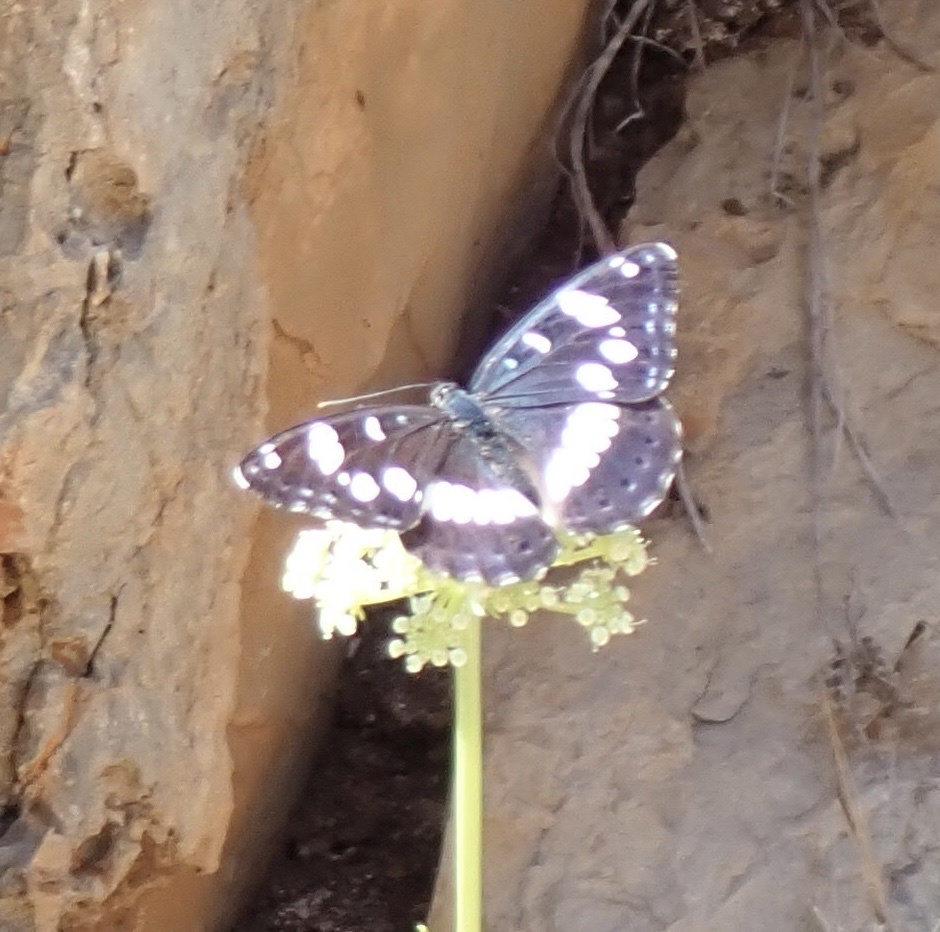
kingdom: Animalia
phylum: Arthropoda
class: Insecta
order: Lepidoptera
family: Nymphalidae
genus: Limenitis
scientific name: Limenitis reducta
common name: Southern white admiral
